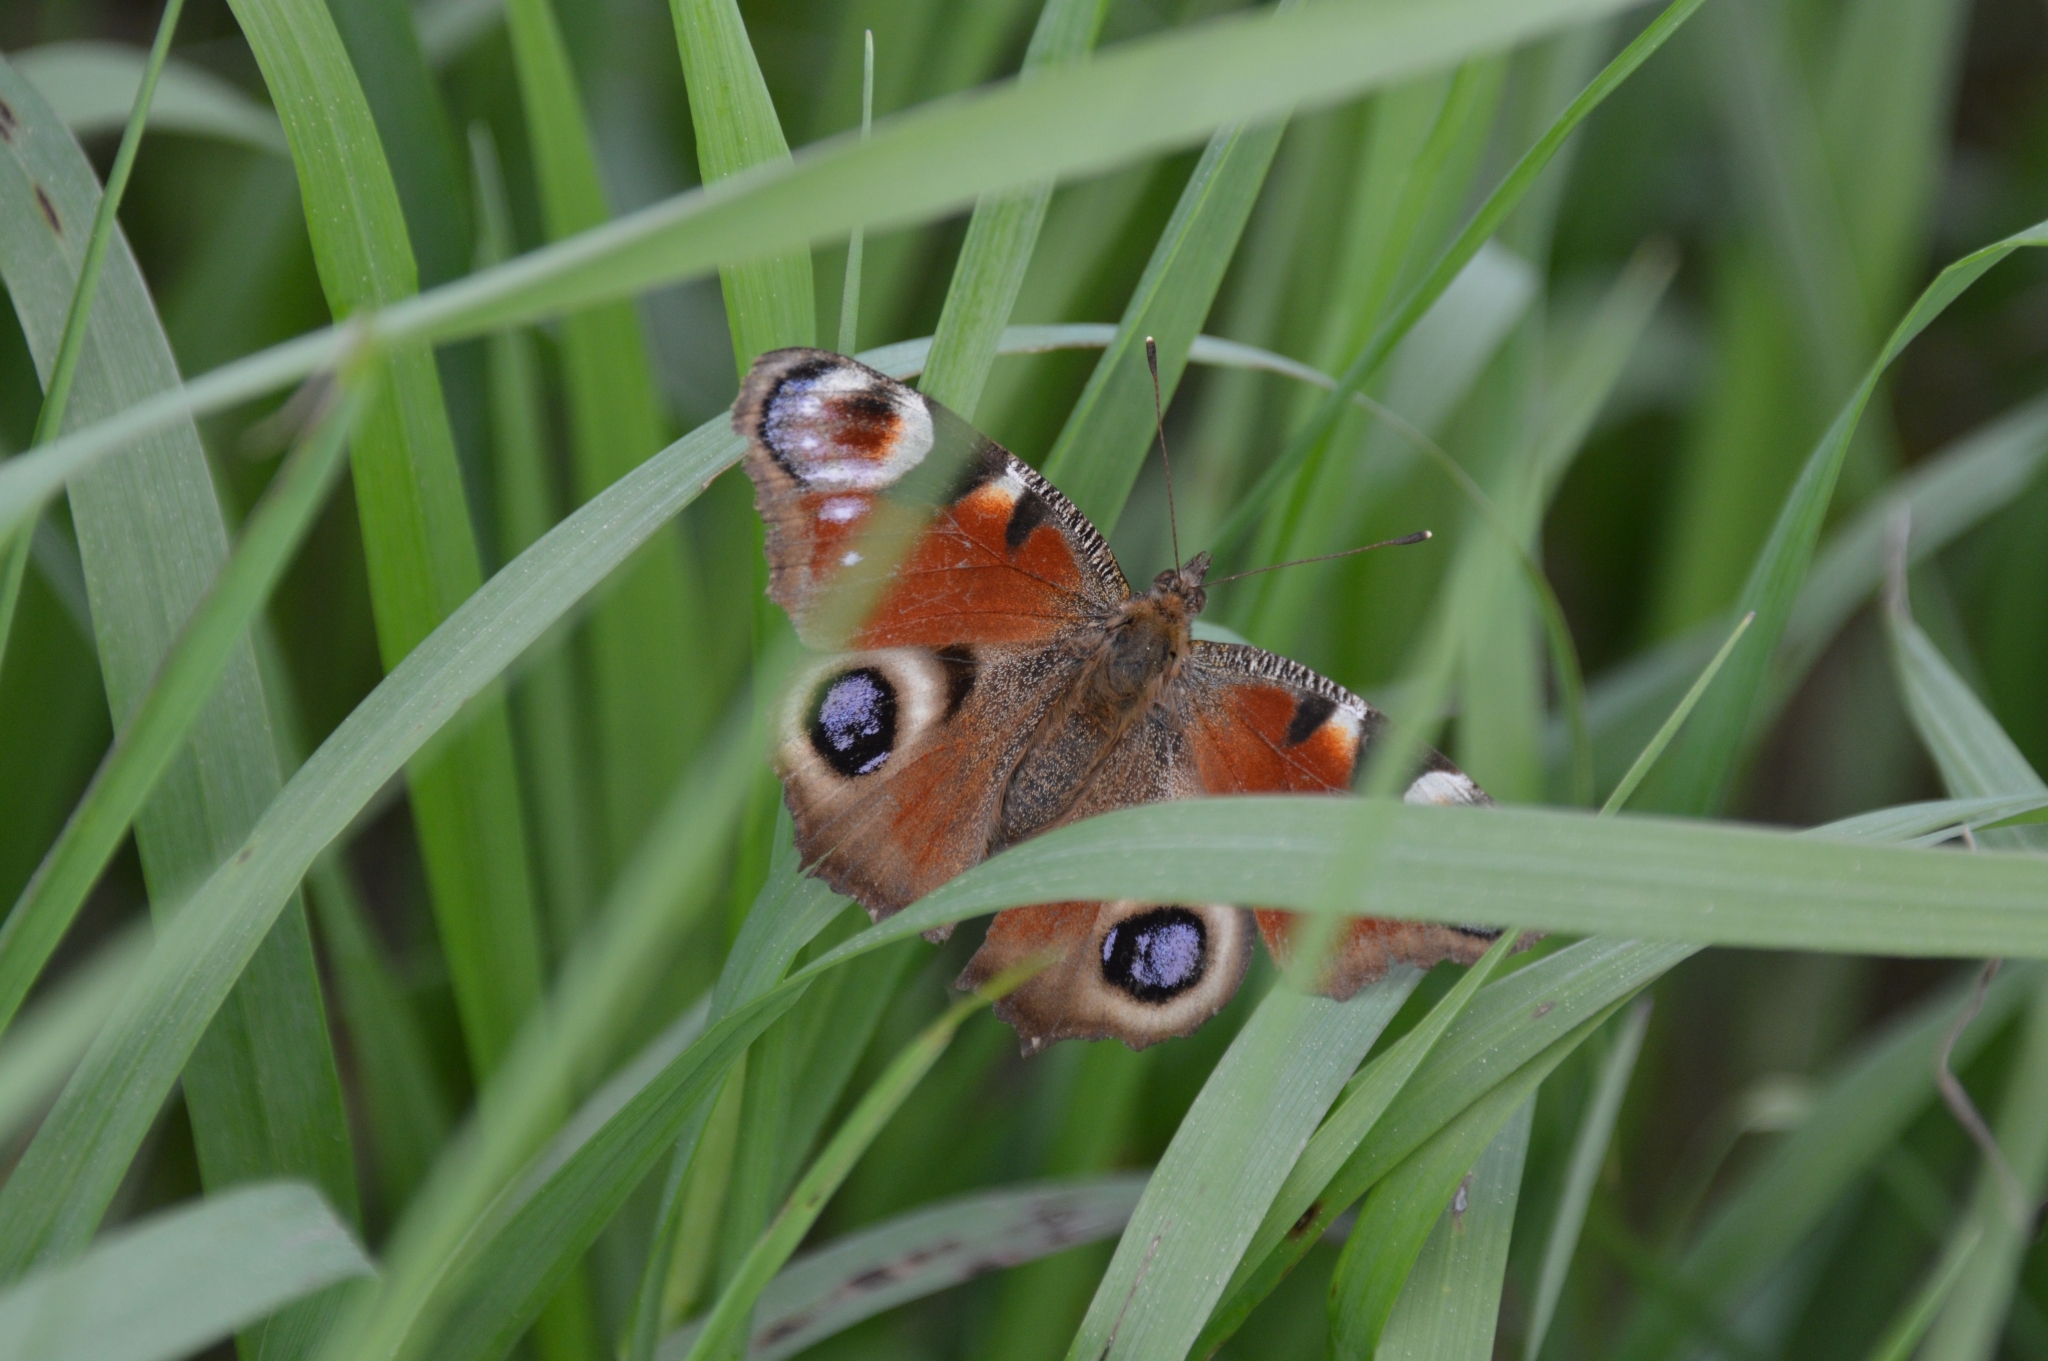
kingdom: Animalia
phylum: Arthropoda
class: Insecta
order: Lepidoptera
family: Nymphalidae
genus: Aglais
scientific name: Aglais io
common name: Peacock
